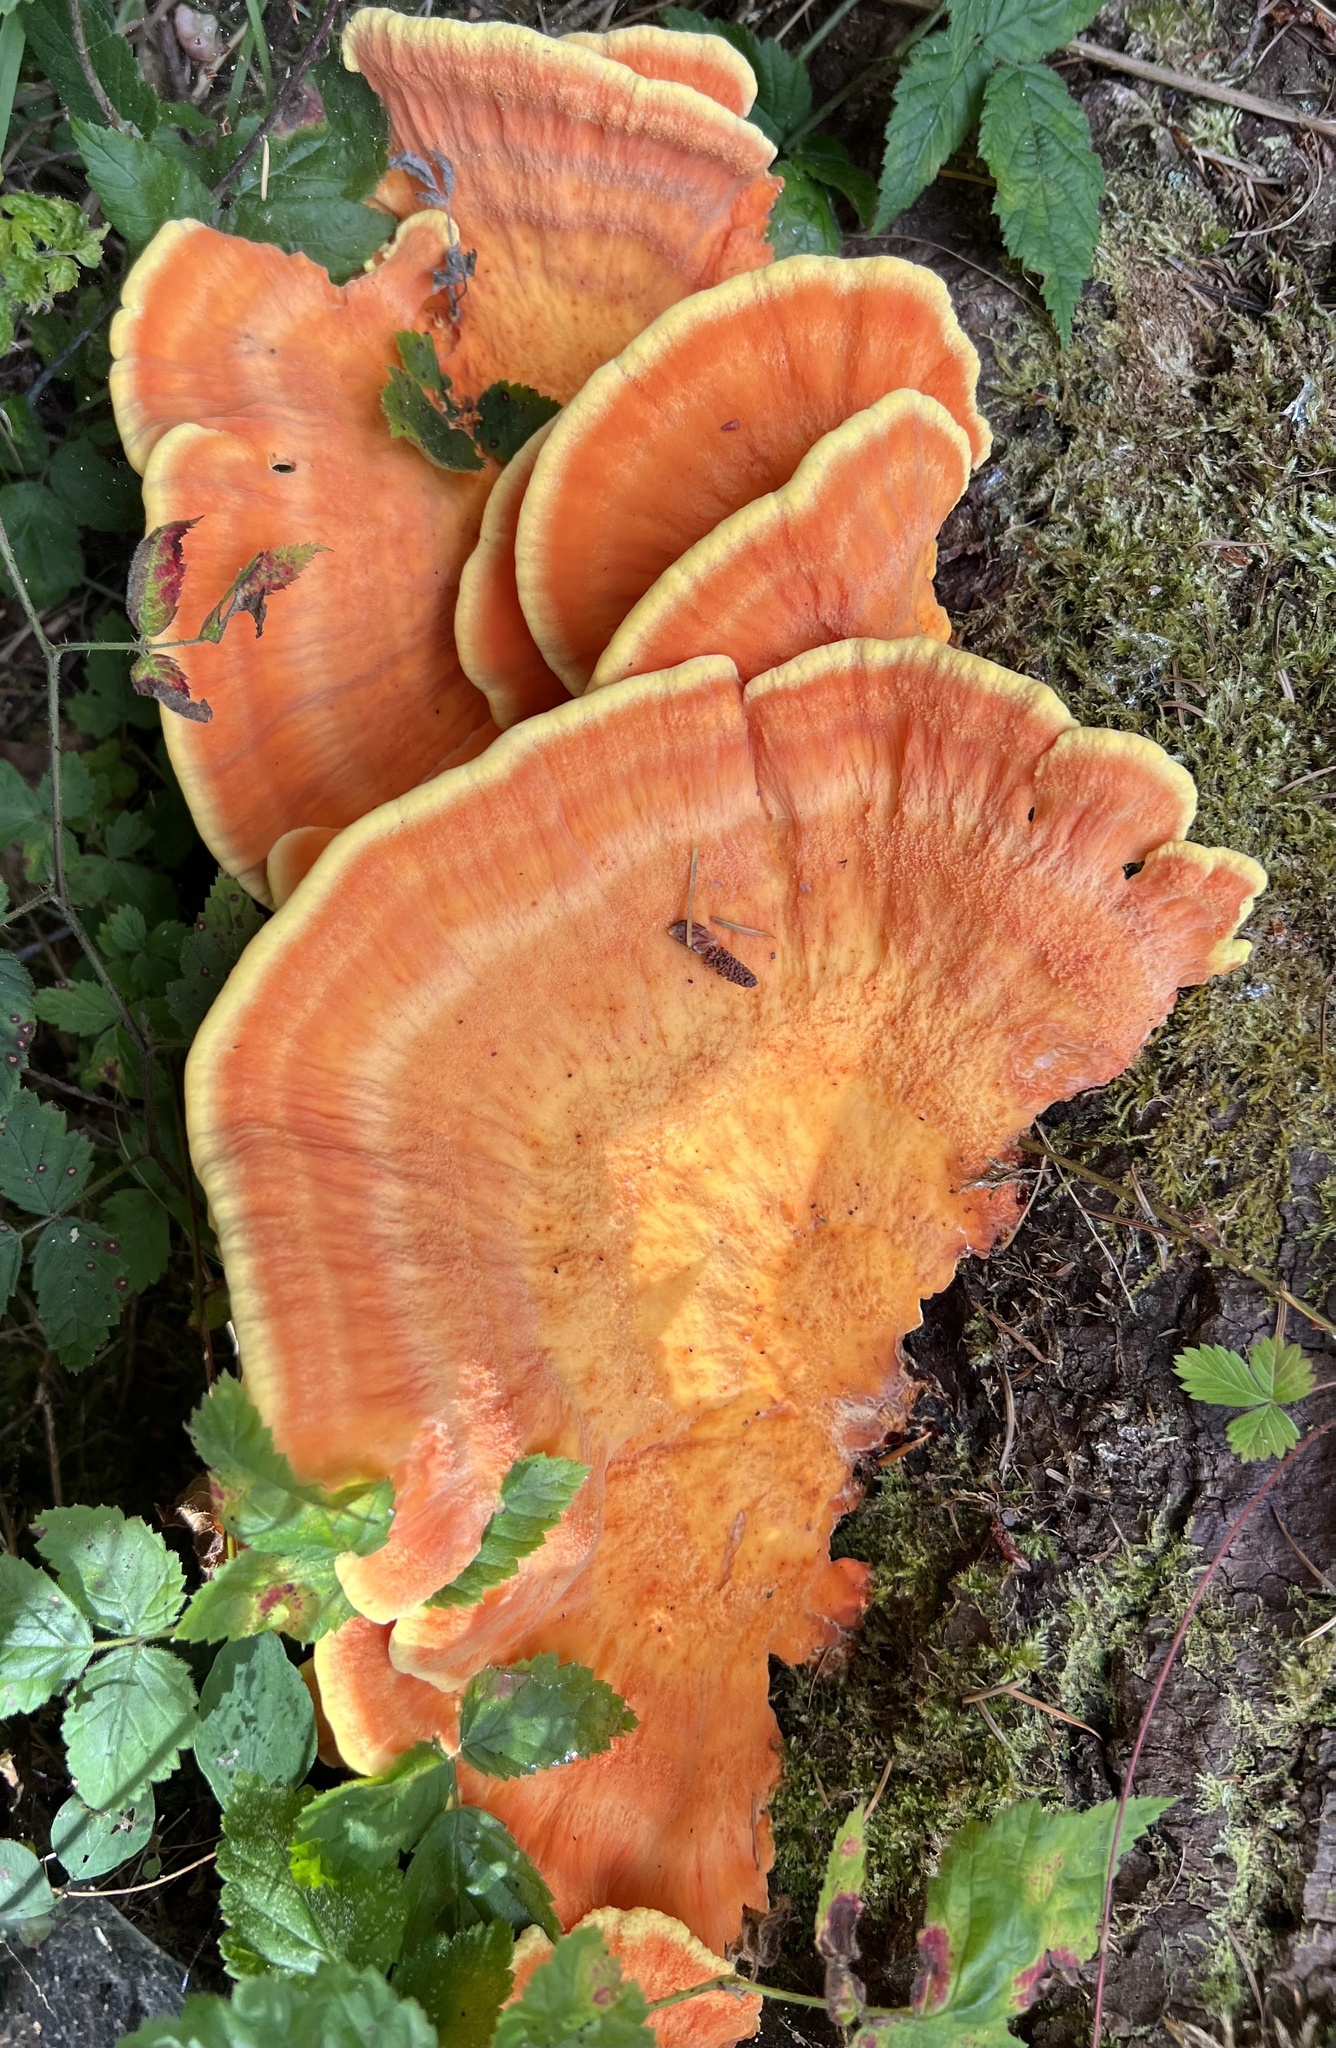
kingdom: Fungi
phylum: Basidiomycota
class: Agaricomycetes
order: Polyporales
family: Laetiporaceae
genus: Laetiporus
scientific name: Laetiporus conifericola
